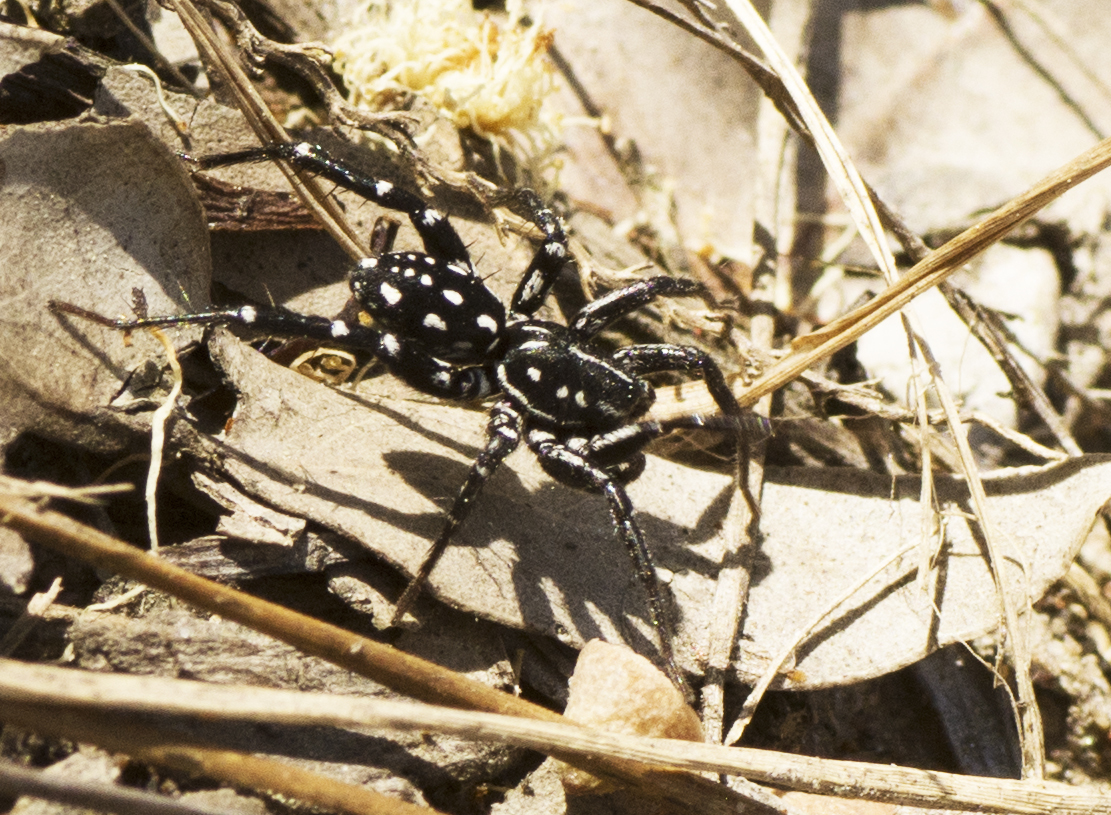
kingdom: Animalia
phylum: Arthropoda
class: Arachnida
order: Araneae
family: Corinnidae
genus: Nyssus
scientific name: Nyssus albopunctatus
